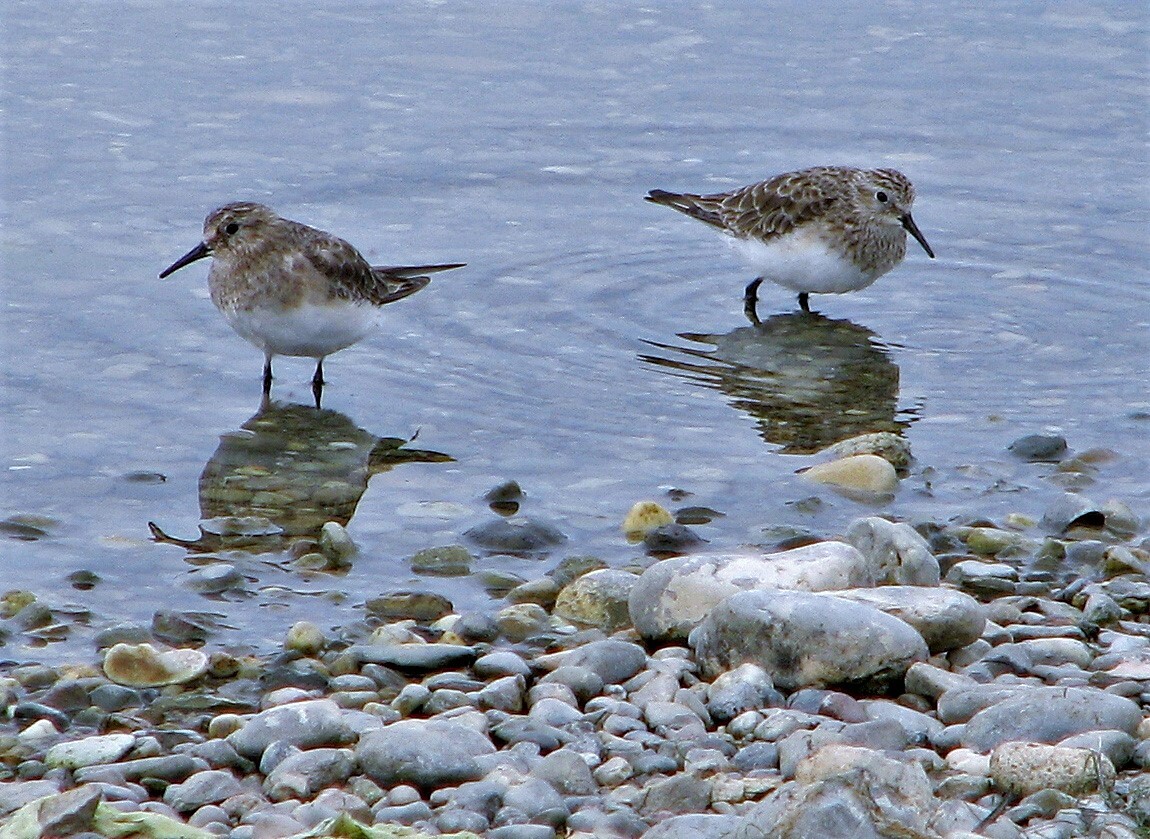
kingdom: Animalia
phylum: Chordata
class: Aves
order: Charadriiformes
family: Scolopacidae
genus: Calidris
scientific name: Calidris bairdii
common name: Baird's sandpiper
